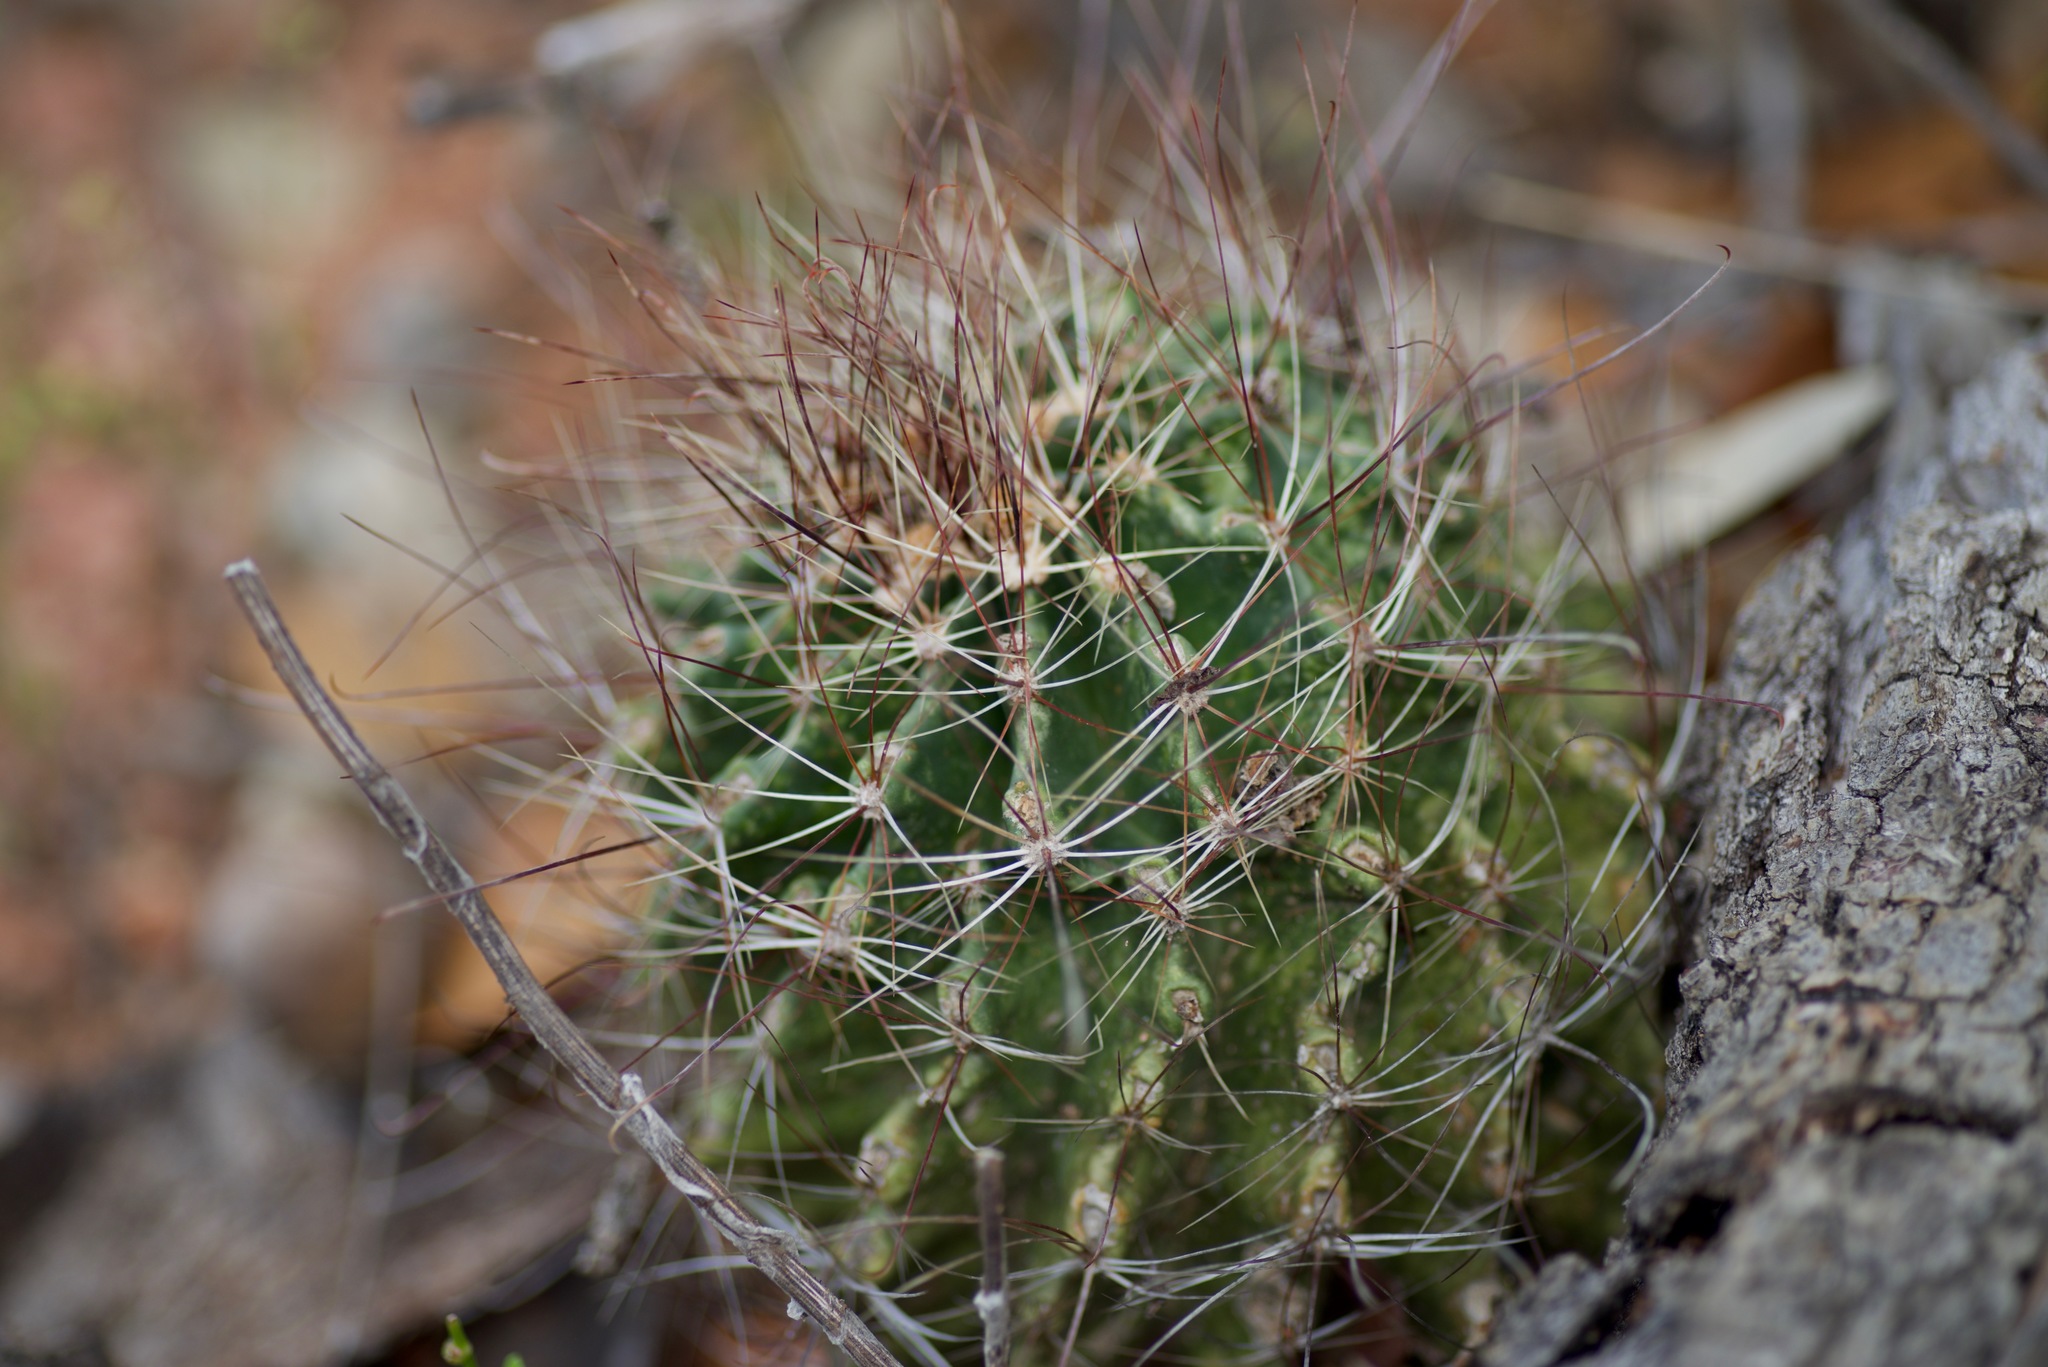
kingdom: Plantae
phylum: Tracheophyta
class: Magnoliopsida
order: Caryophyllales
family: Cactaceae
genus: Thelocactus
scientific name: Thelocactus setispinus
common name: Miniature barrel cactus
